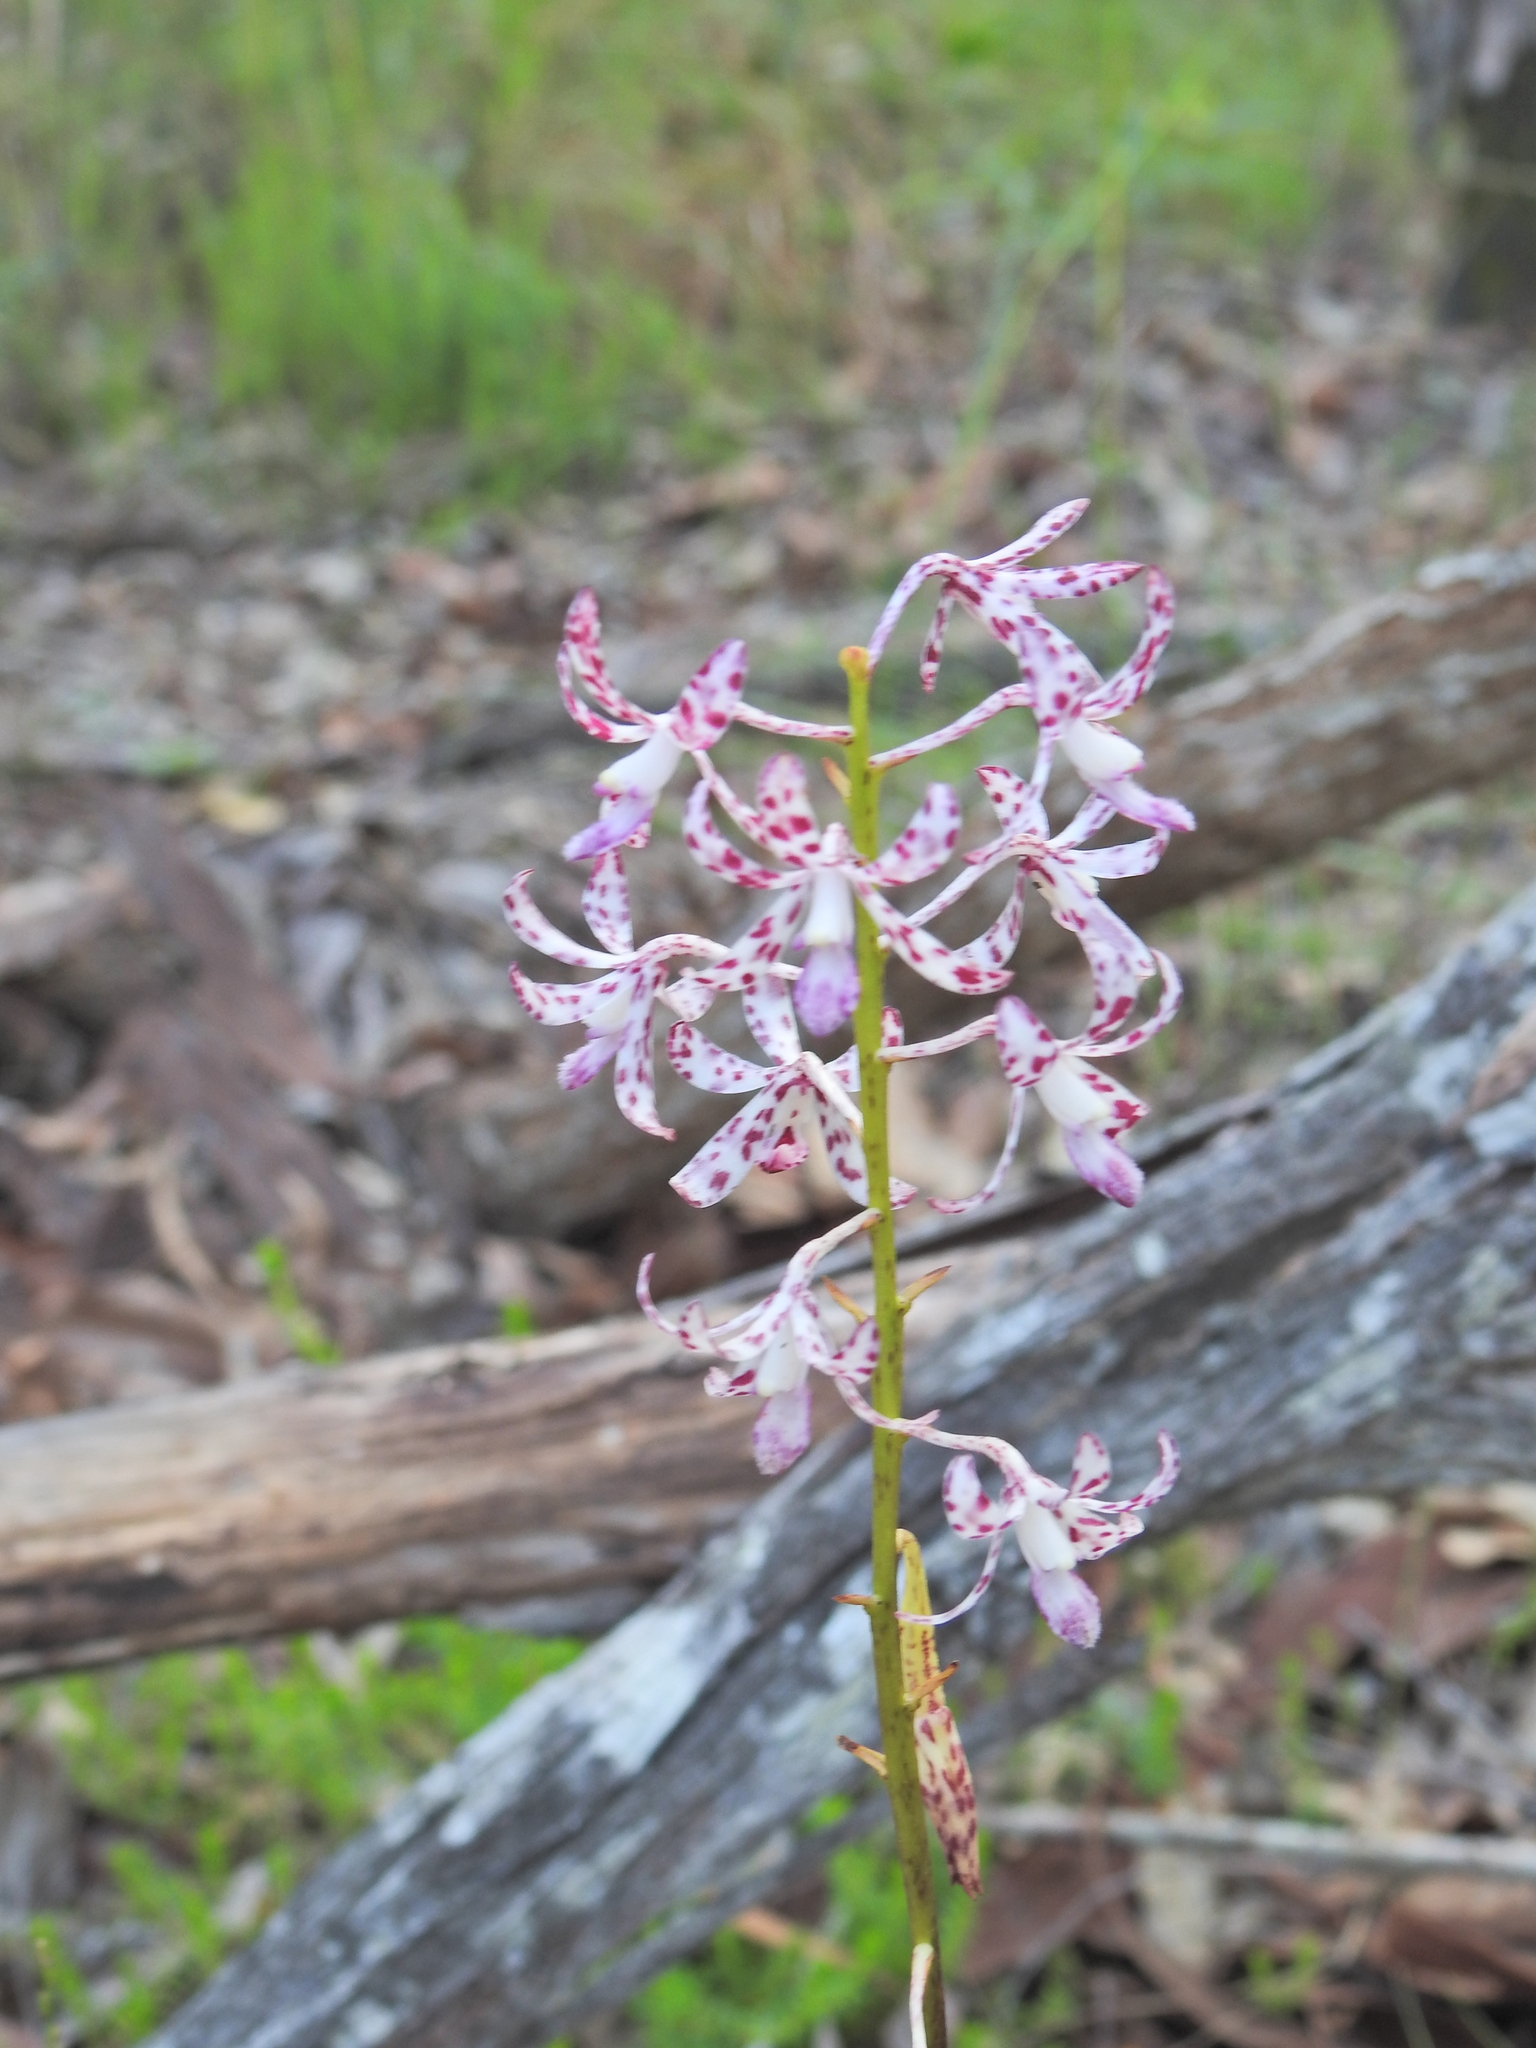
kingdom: Plantae
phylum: Tracheophyta
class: Liliopsida
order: Asparagales
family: Orchidaceae
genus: Dipodium
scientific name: Dipodium variegatum
